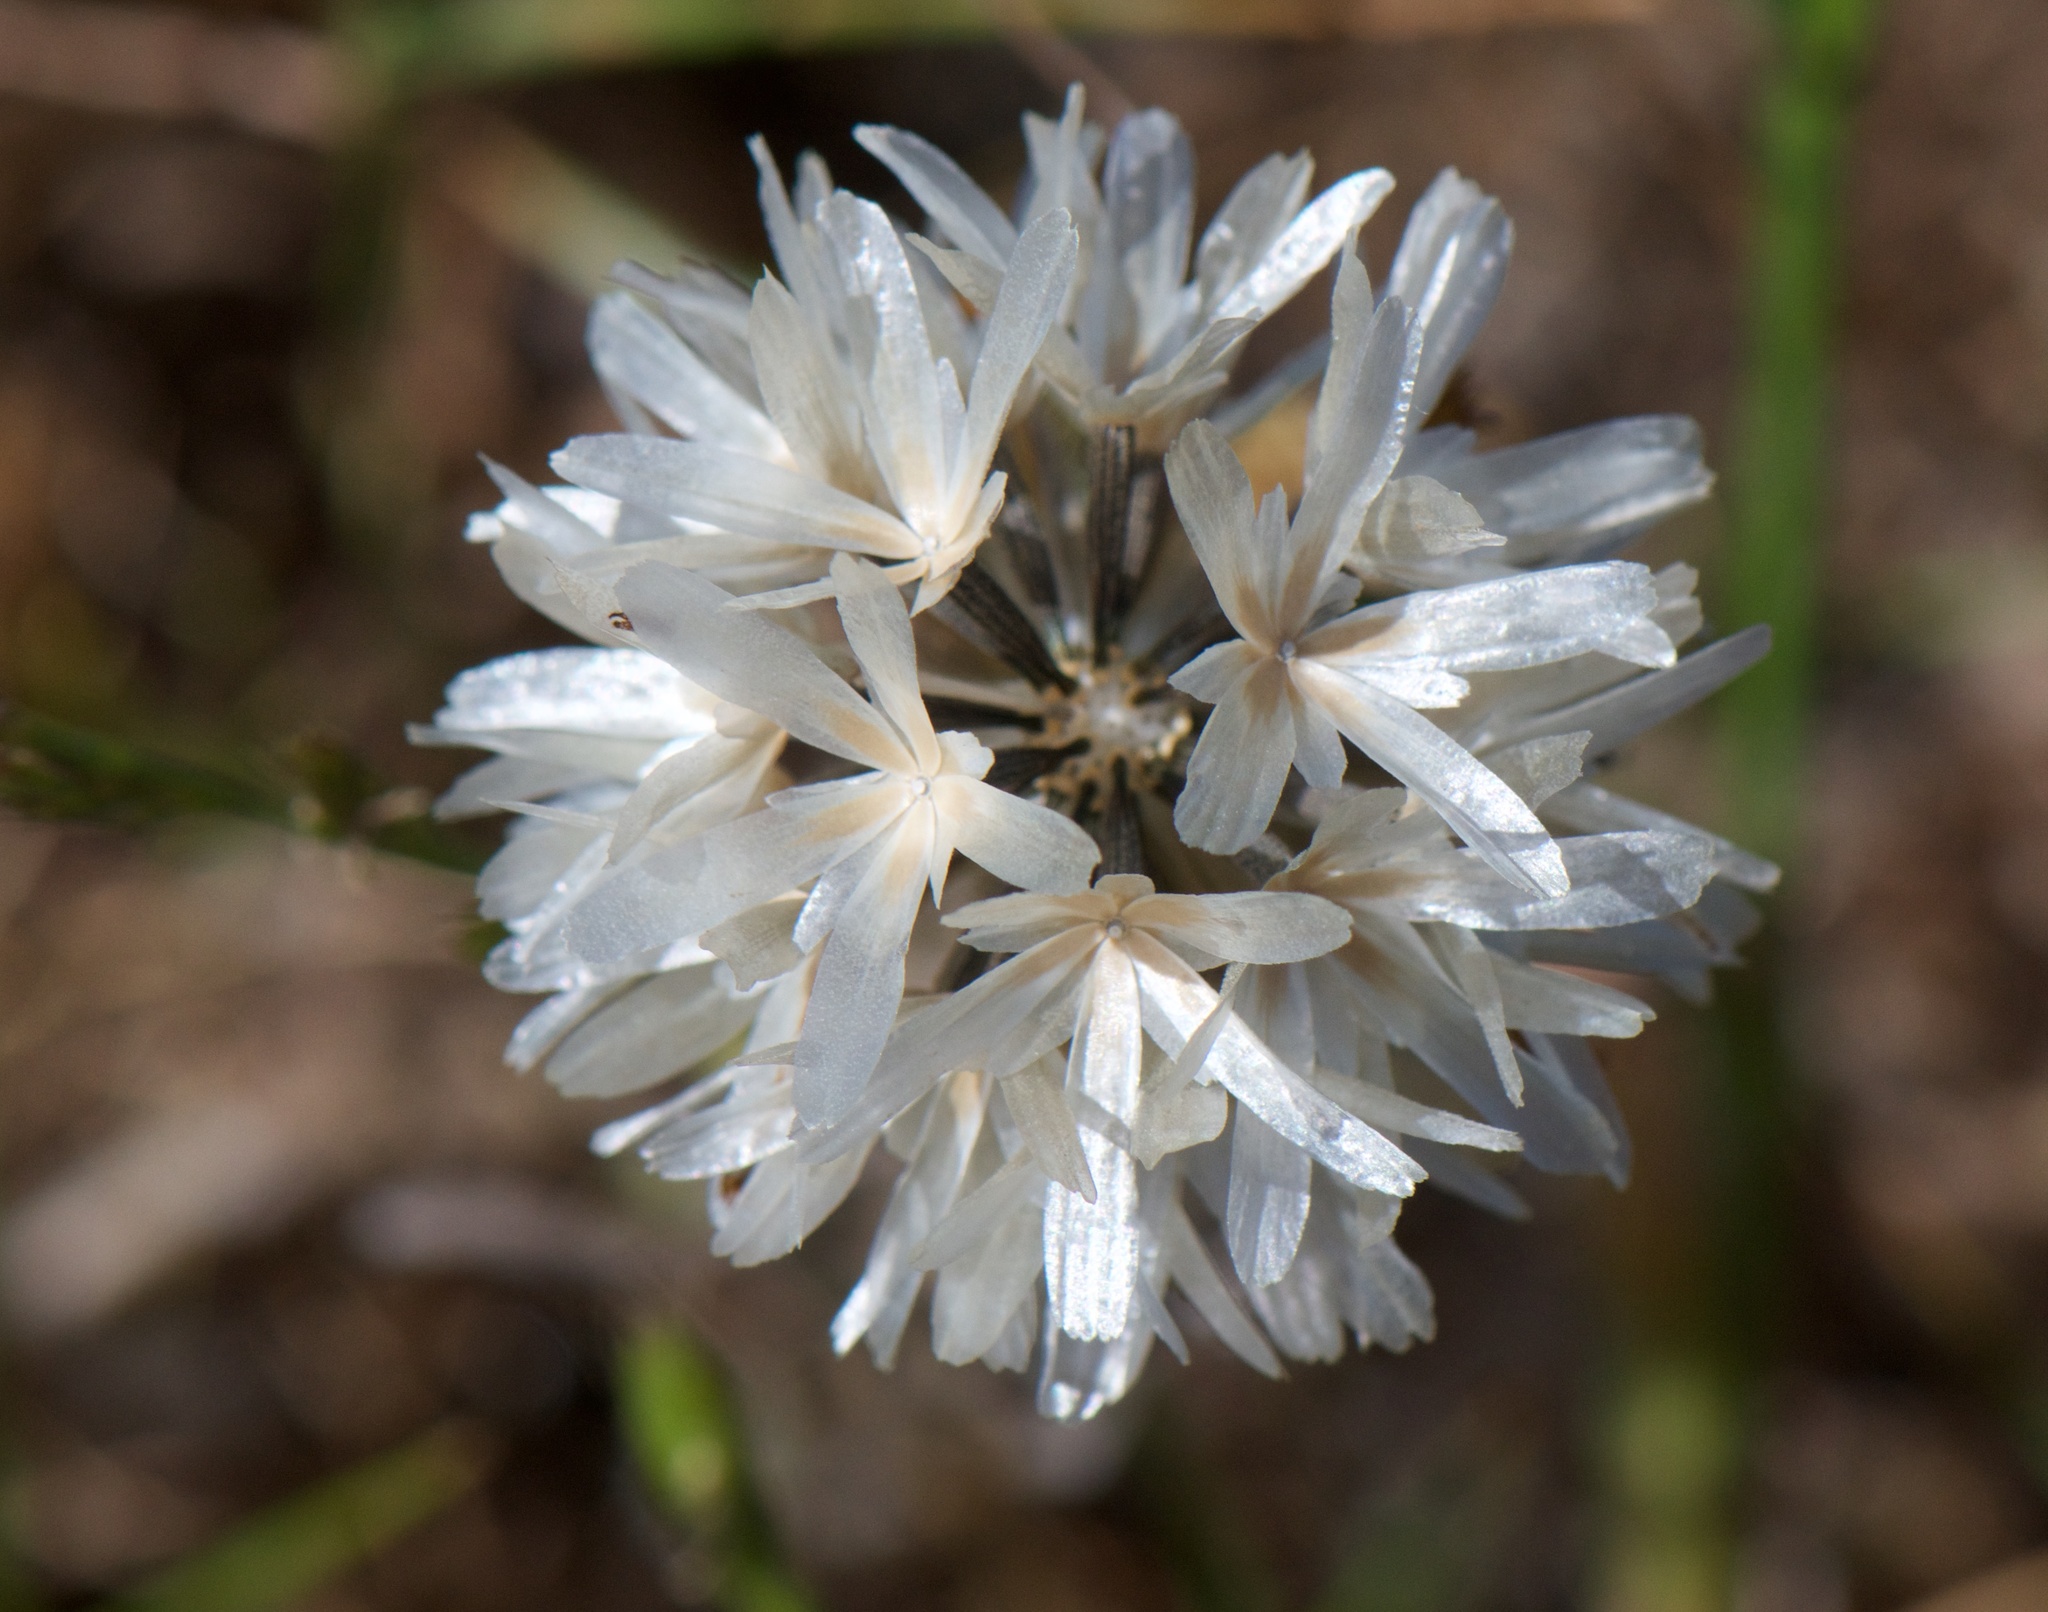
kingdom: Plantae
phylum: Tracheophyta
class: Magnoliopsida
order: Asterales
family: Asteraceae
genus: Achyrachaena
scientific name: Achyrachaena mollis
